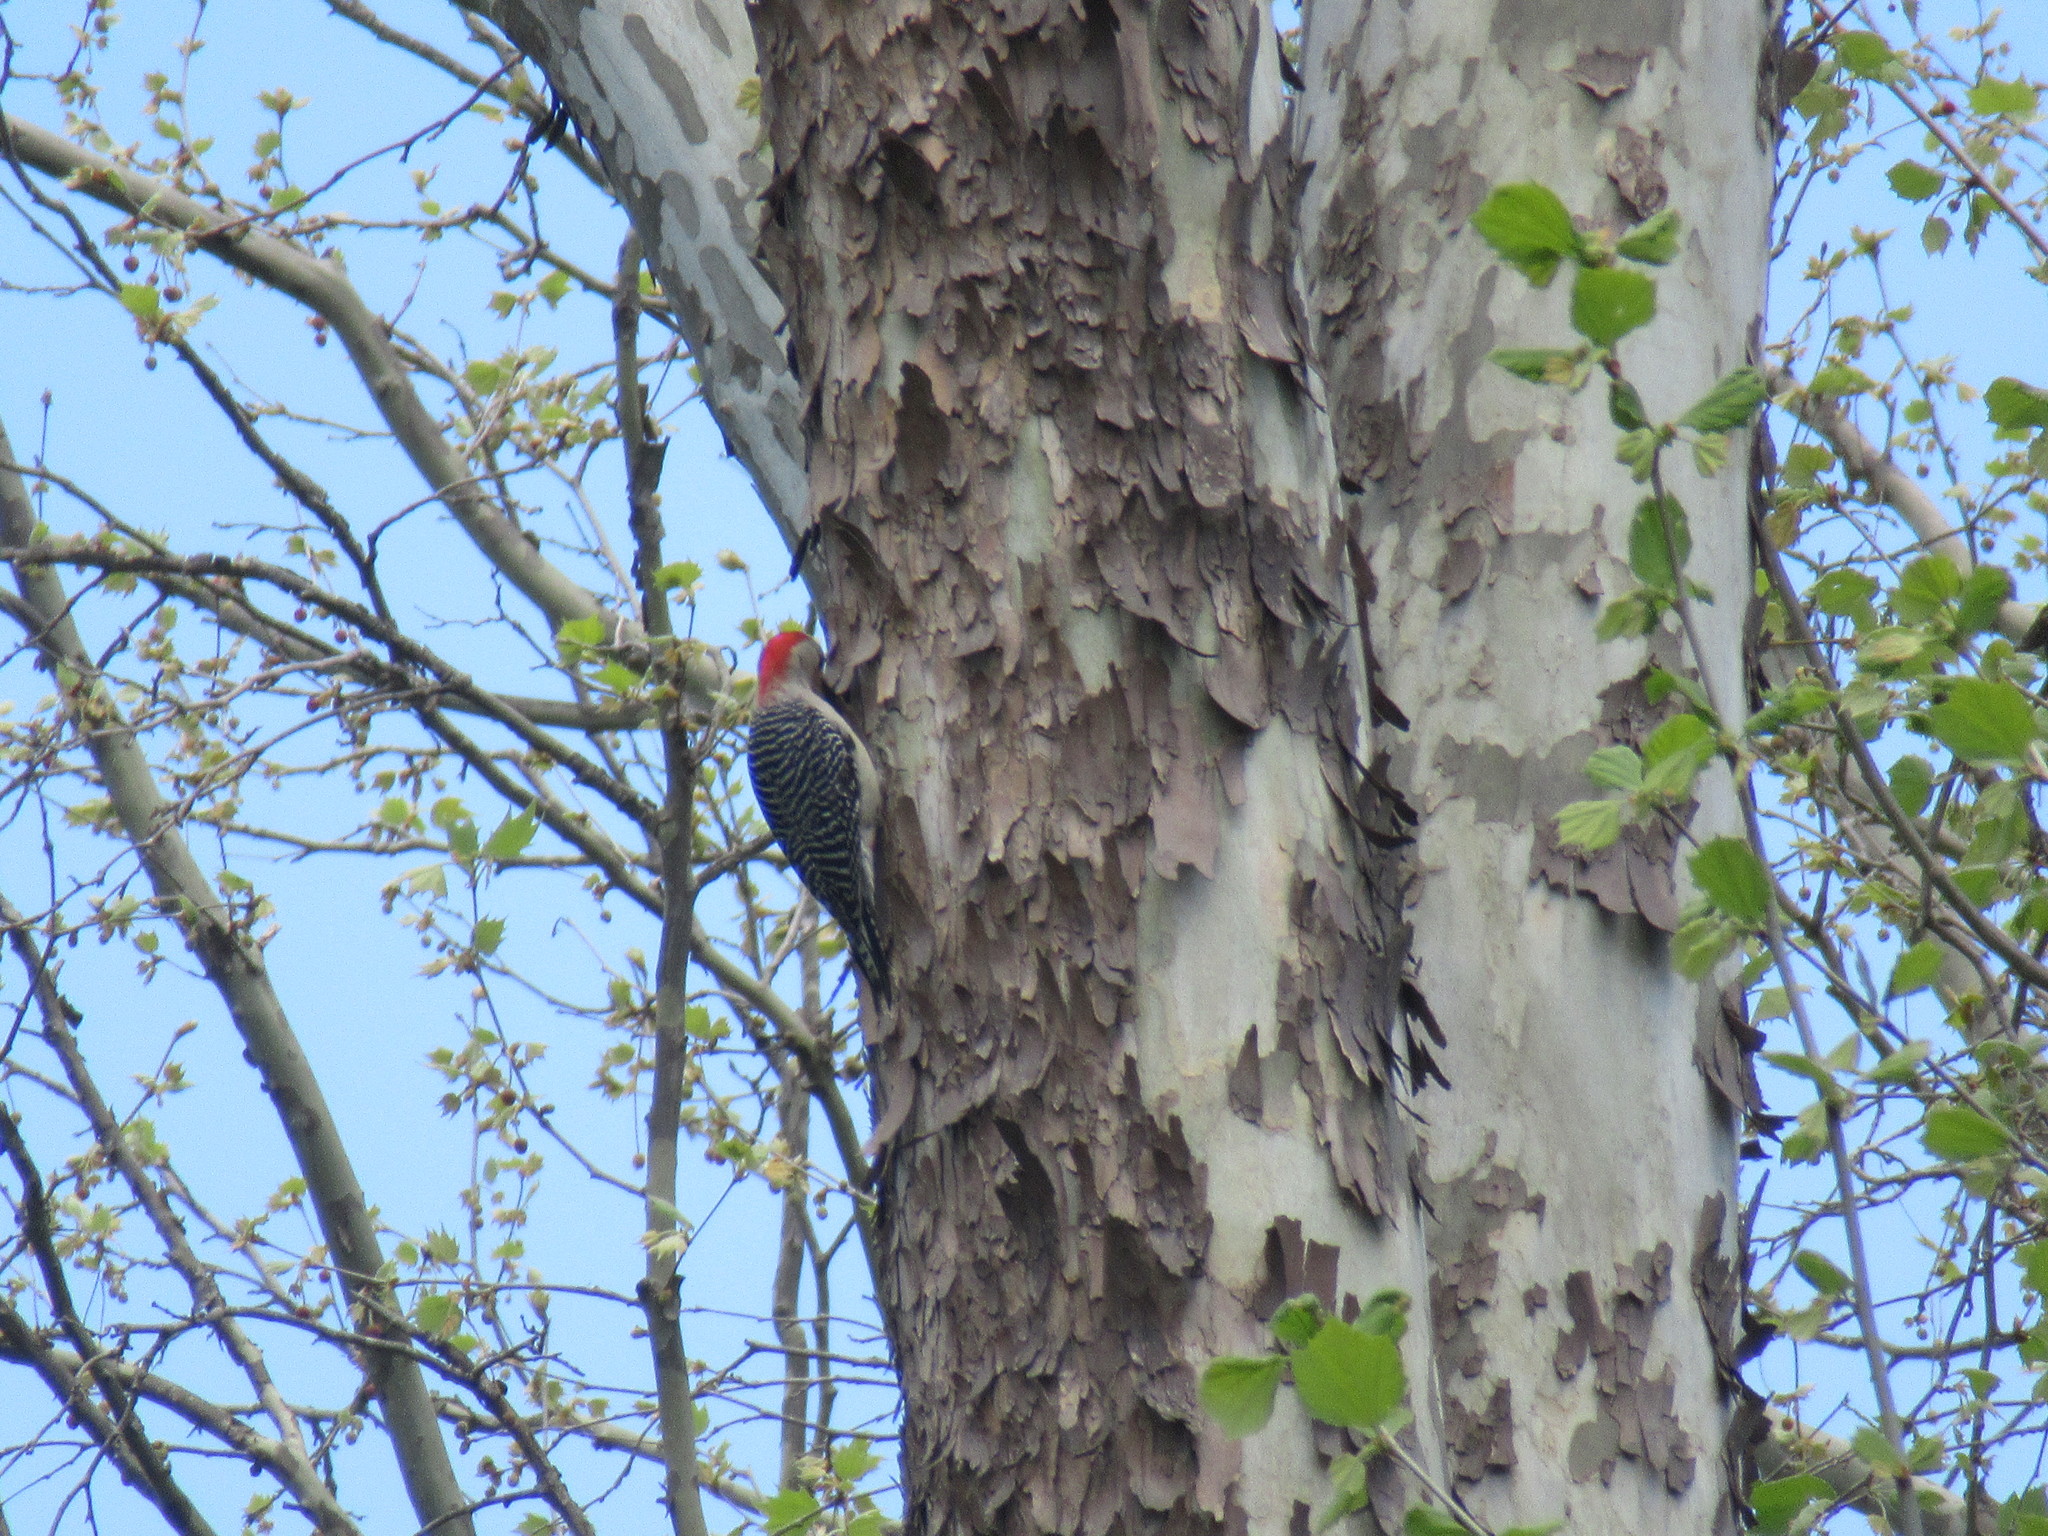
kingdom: Animalia
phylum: Chordata
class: Aves
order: Piciformes
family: Picidae
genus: Melanerpes
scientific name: Melanerpes carolinus
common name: Red-bellied woodpecker
